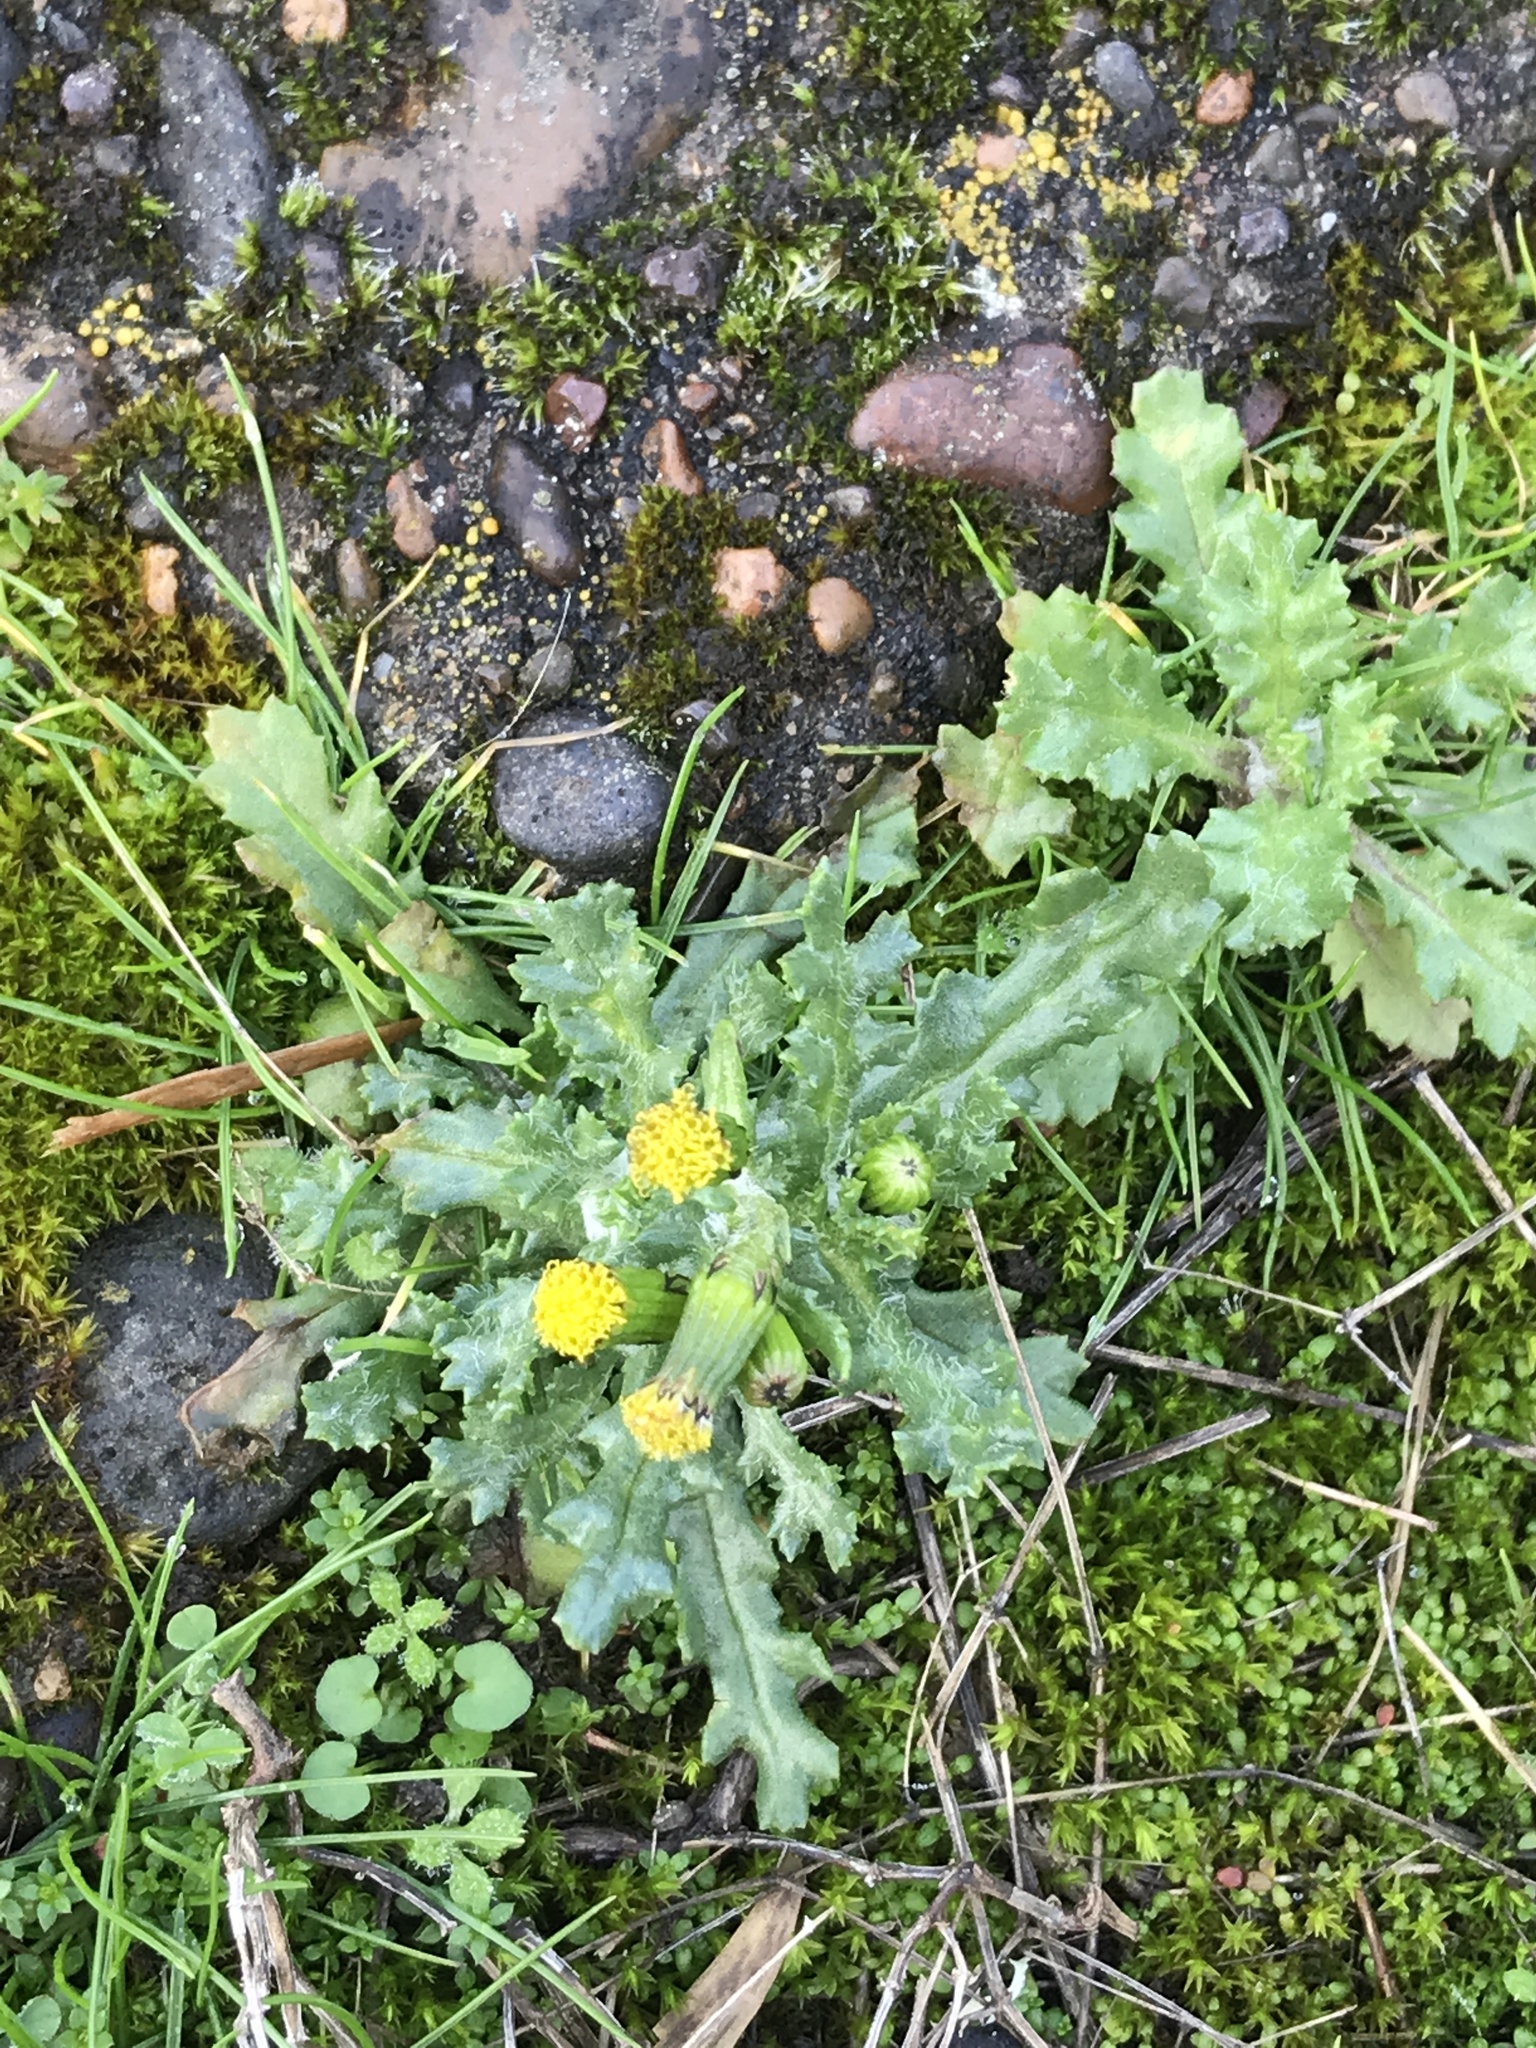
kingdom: Plantae
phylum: Tracheophyta
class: Magnoliopsida
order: Asterales
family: Asteraceae
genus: Senecio
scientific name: Senecio vulgaris
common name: Old-man-in-the-spring
